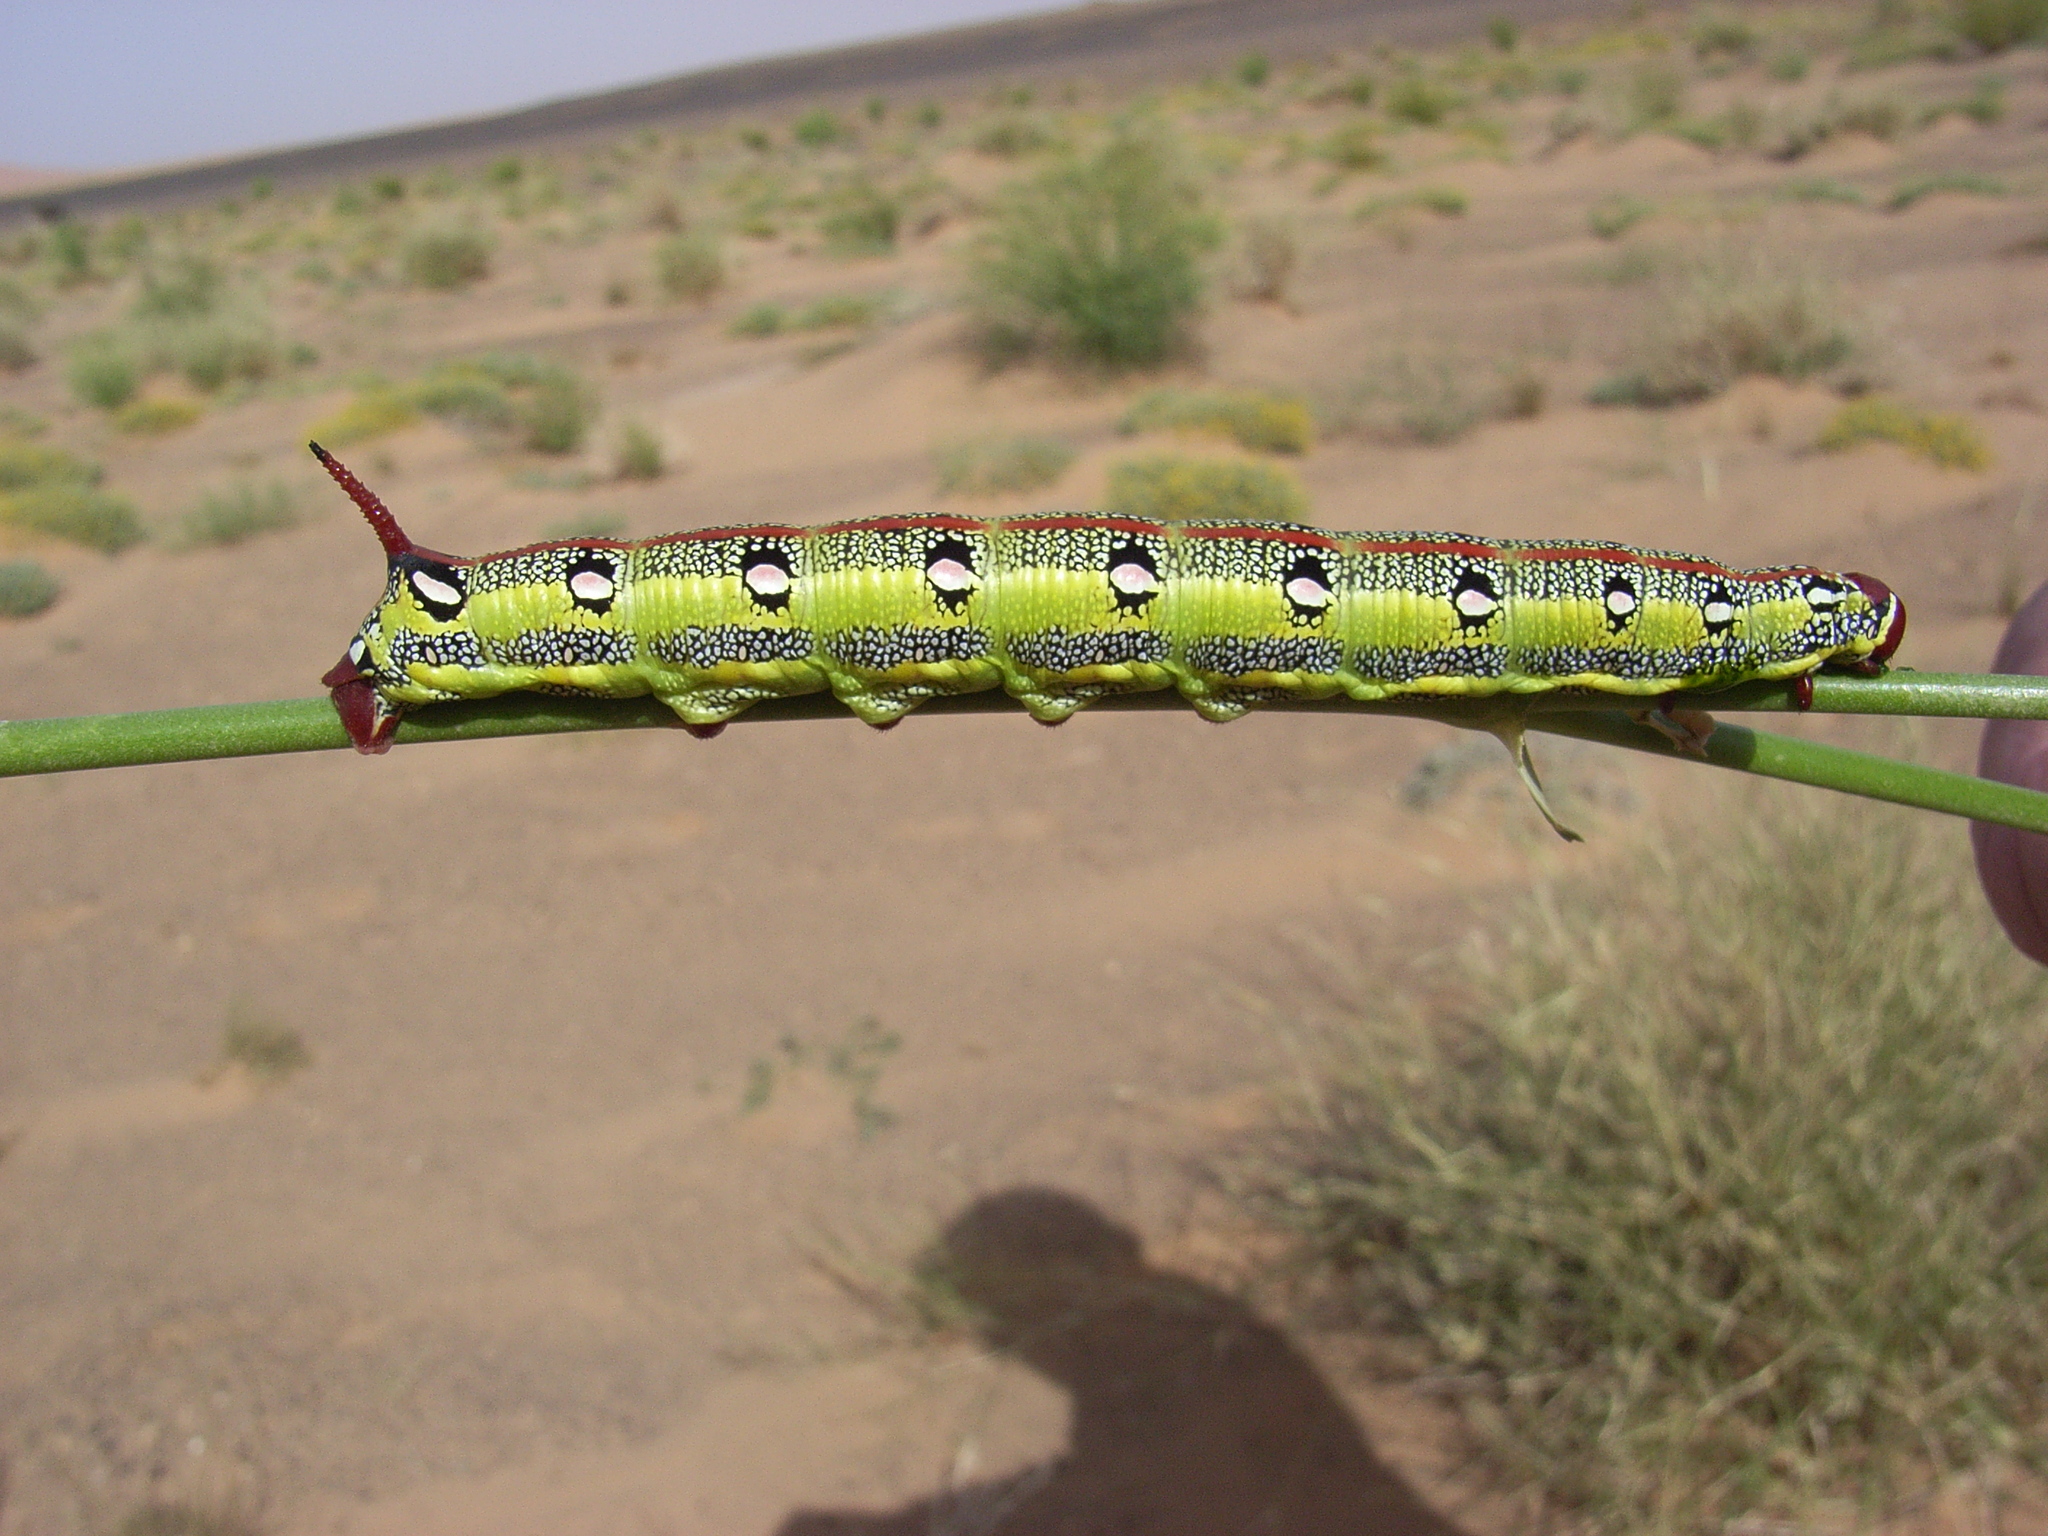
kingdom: Animalia
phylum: Arthropoda
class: Insecta
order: Lepidoptera
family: Sphingidae
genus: Hyles
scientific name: Hyles tithymali
